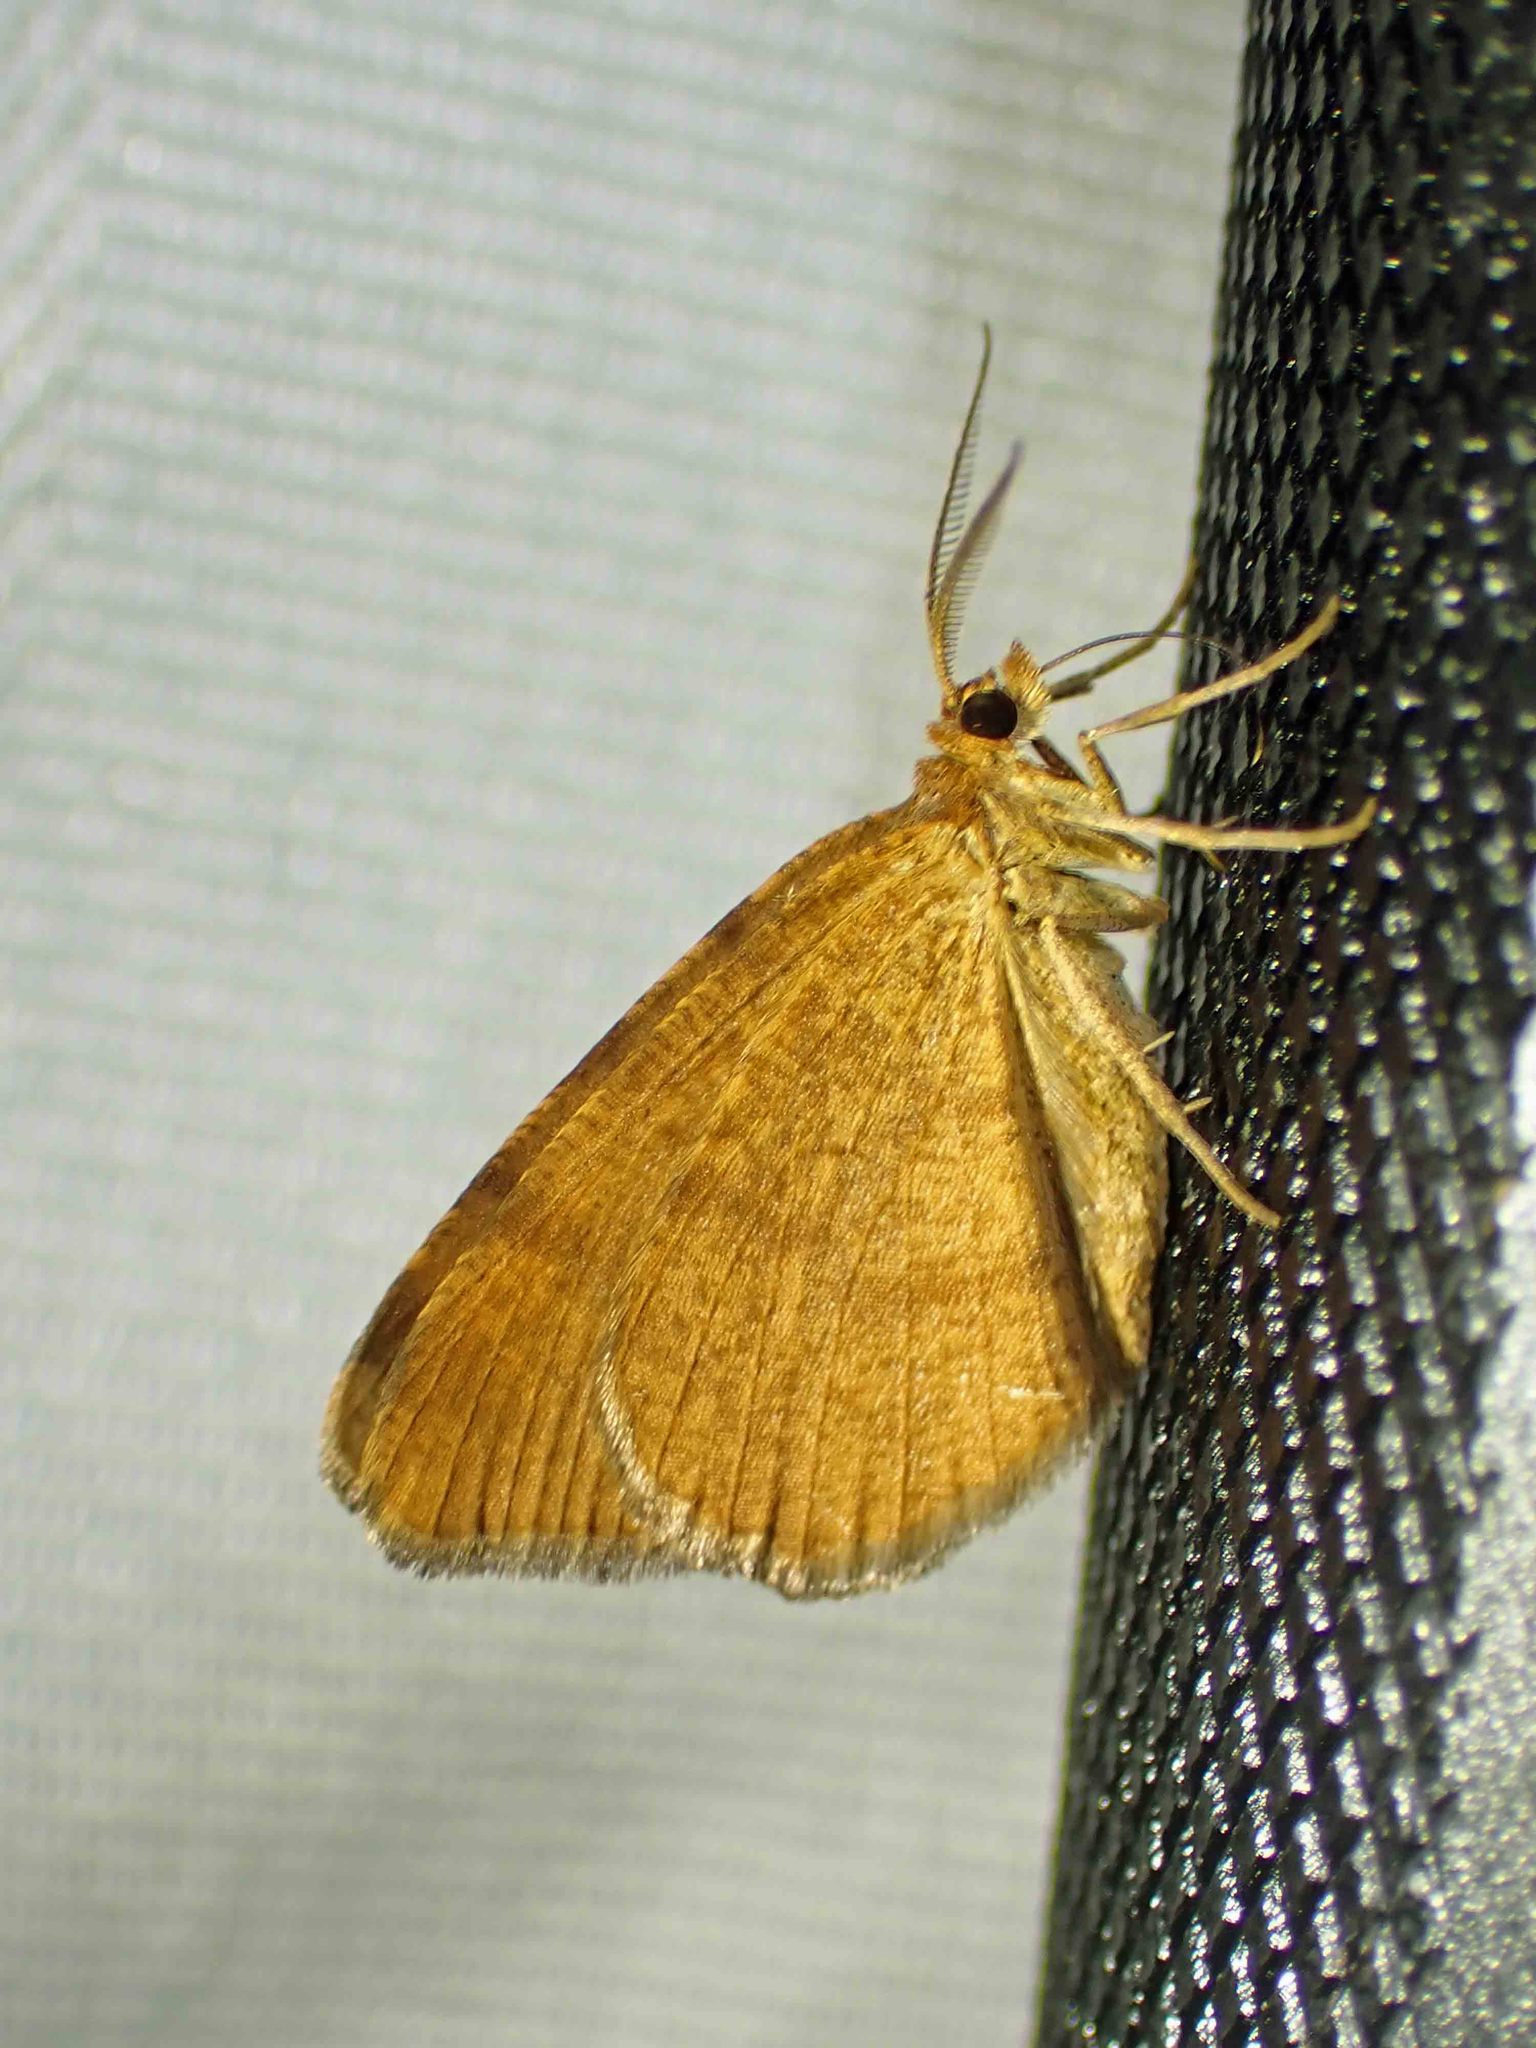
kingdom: Animalia
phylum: Arthropoda
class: Insecta
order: Lepidoptera
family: Geometridae
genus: Macaria
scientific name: Macaria brunneata
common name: Rannoch looper
